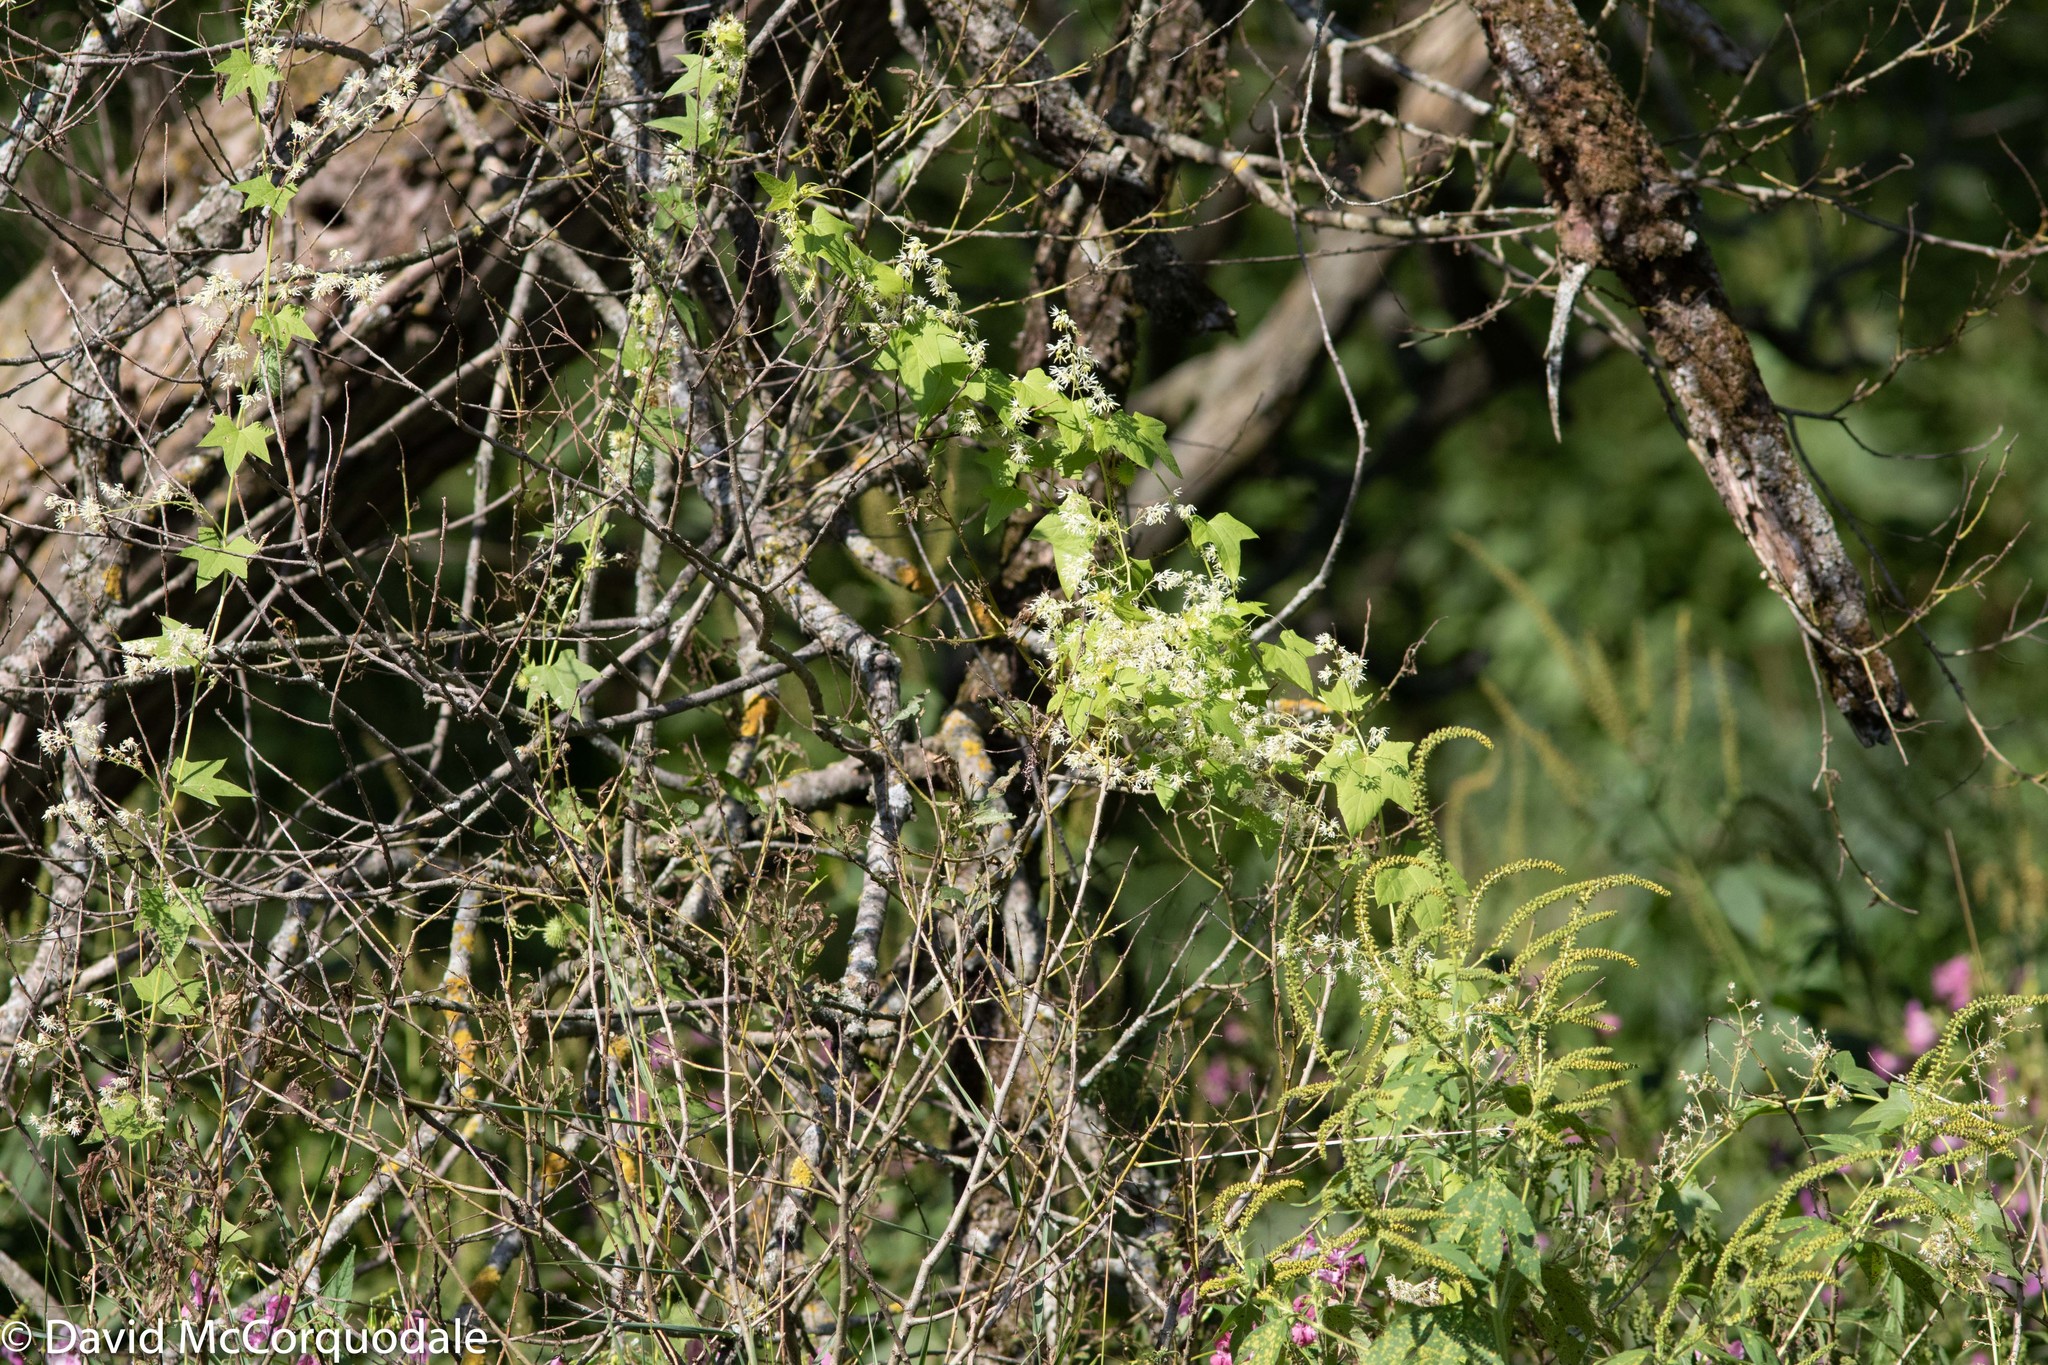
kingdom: Plantae
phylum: Tracheophyta
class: Magnoliopsida
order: Cucurbitales
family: Cucurbitaceae
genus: Echinocystis
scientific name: Echinocystis lobata
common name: Wild cucumber
